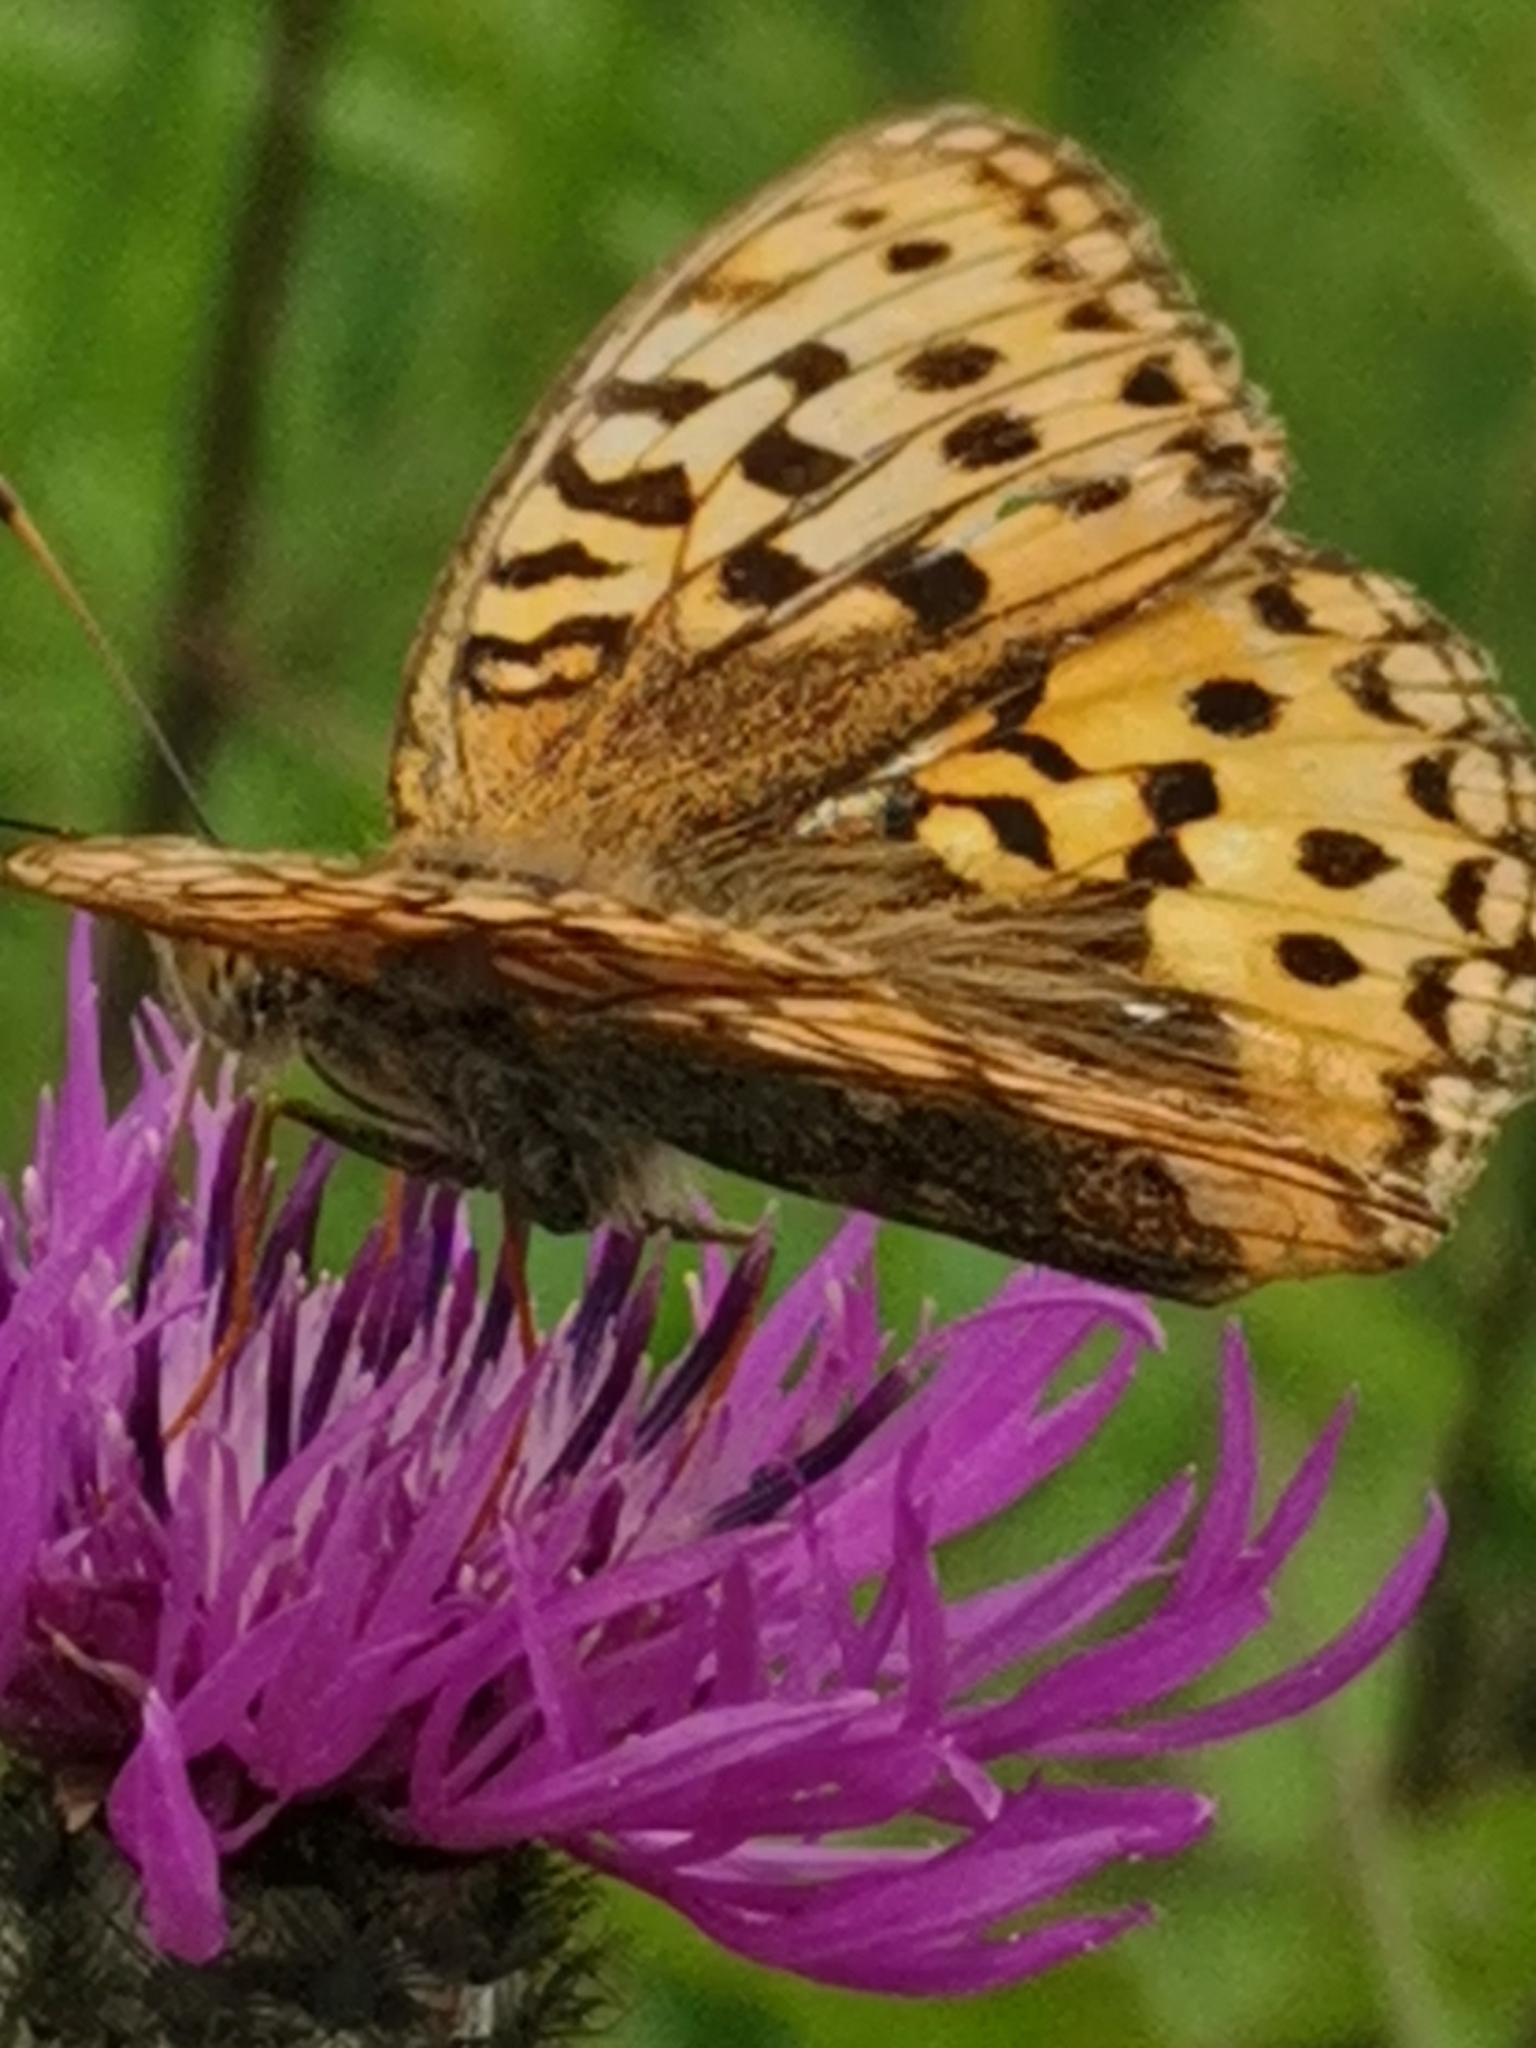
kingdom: Animalia
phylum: Arthropoda
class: Insecta
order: Lepidoptera
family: Nymphalidae
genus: Fabriciana
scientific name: Fabriciana adippe
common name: High brown fritillary
